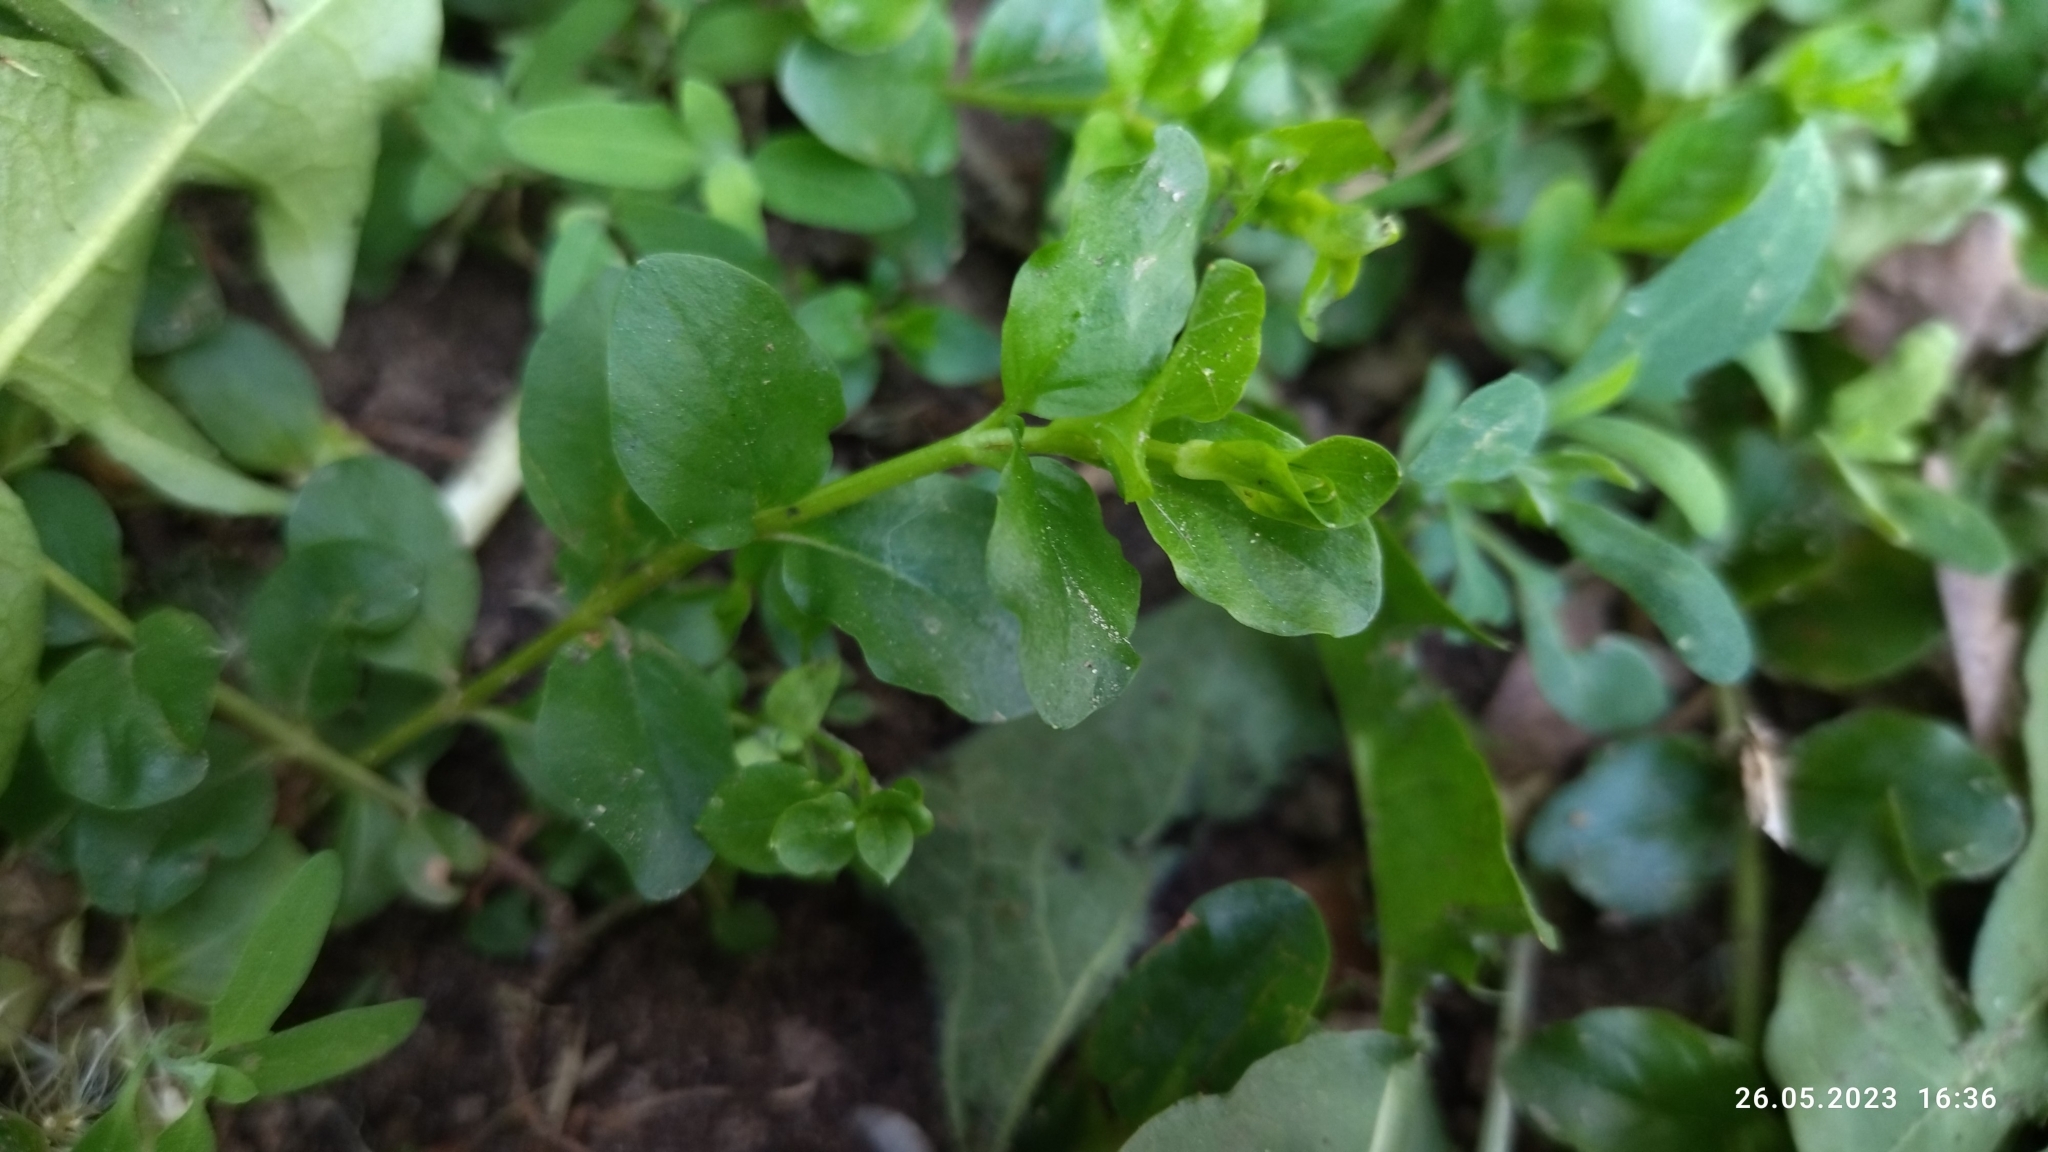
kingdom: Plantae
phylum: Tracheophyta
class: Magnoliopsida
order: Ericales
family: Primulaceae
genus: Lysimachia
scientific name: Lysimachia nummularia
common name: Moneywort
